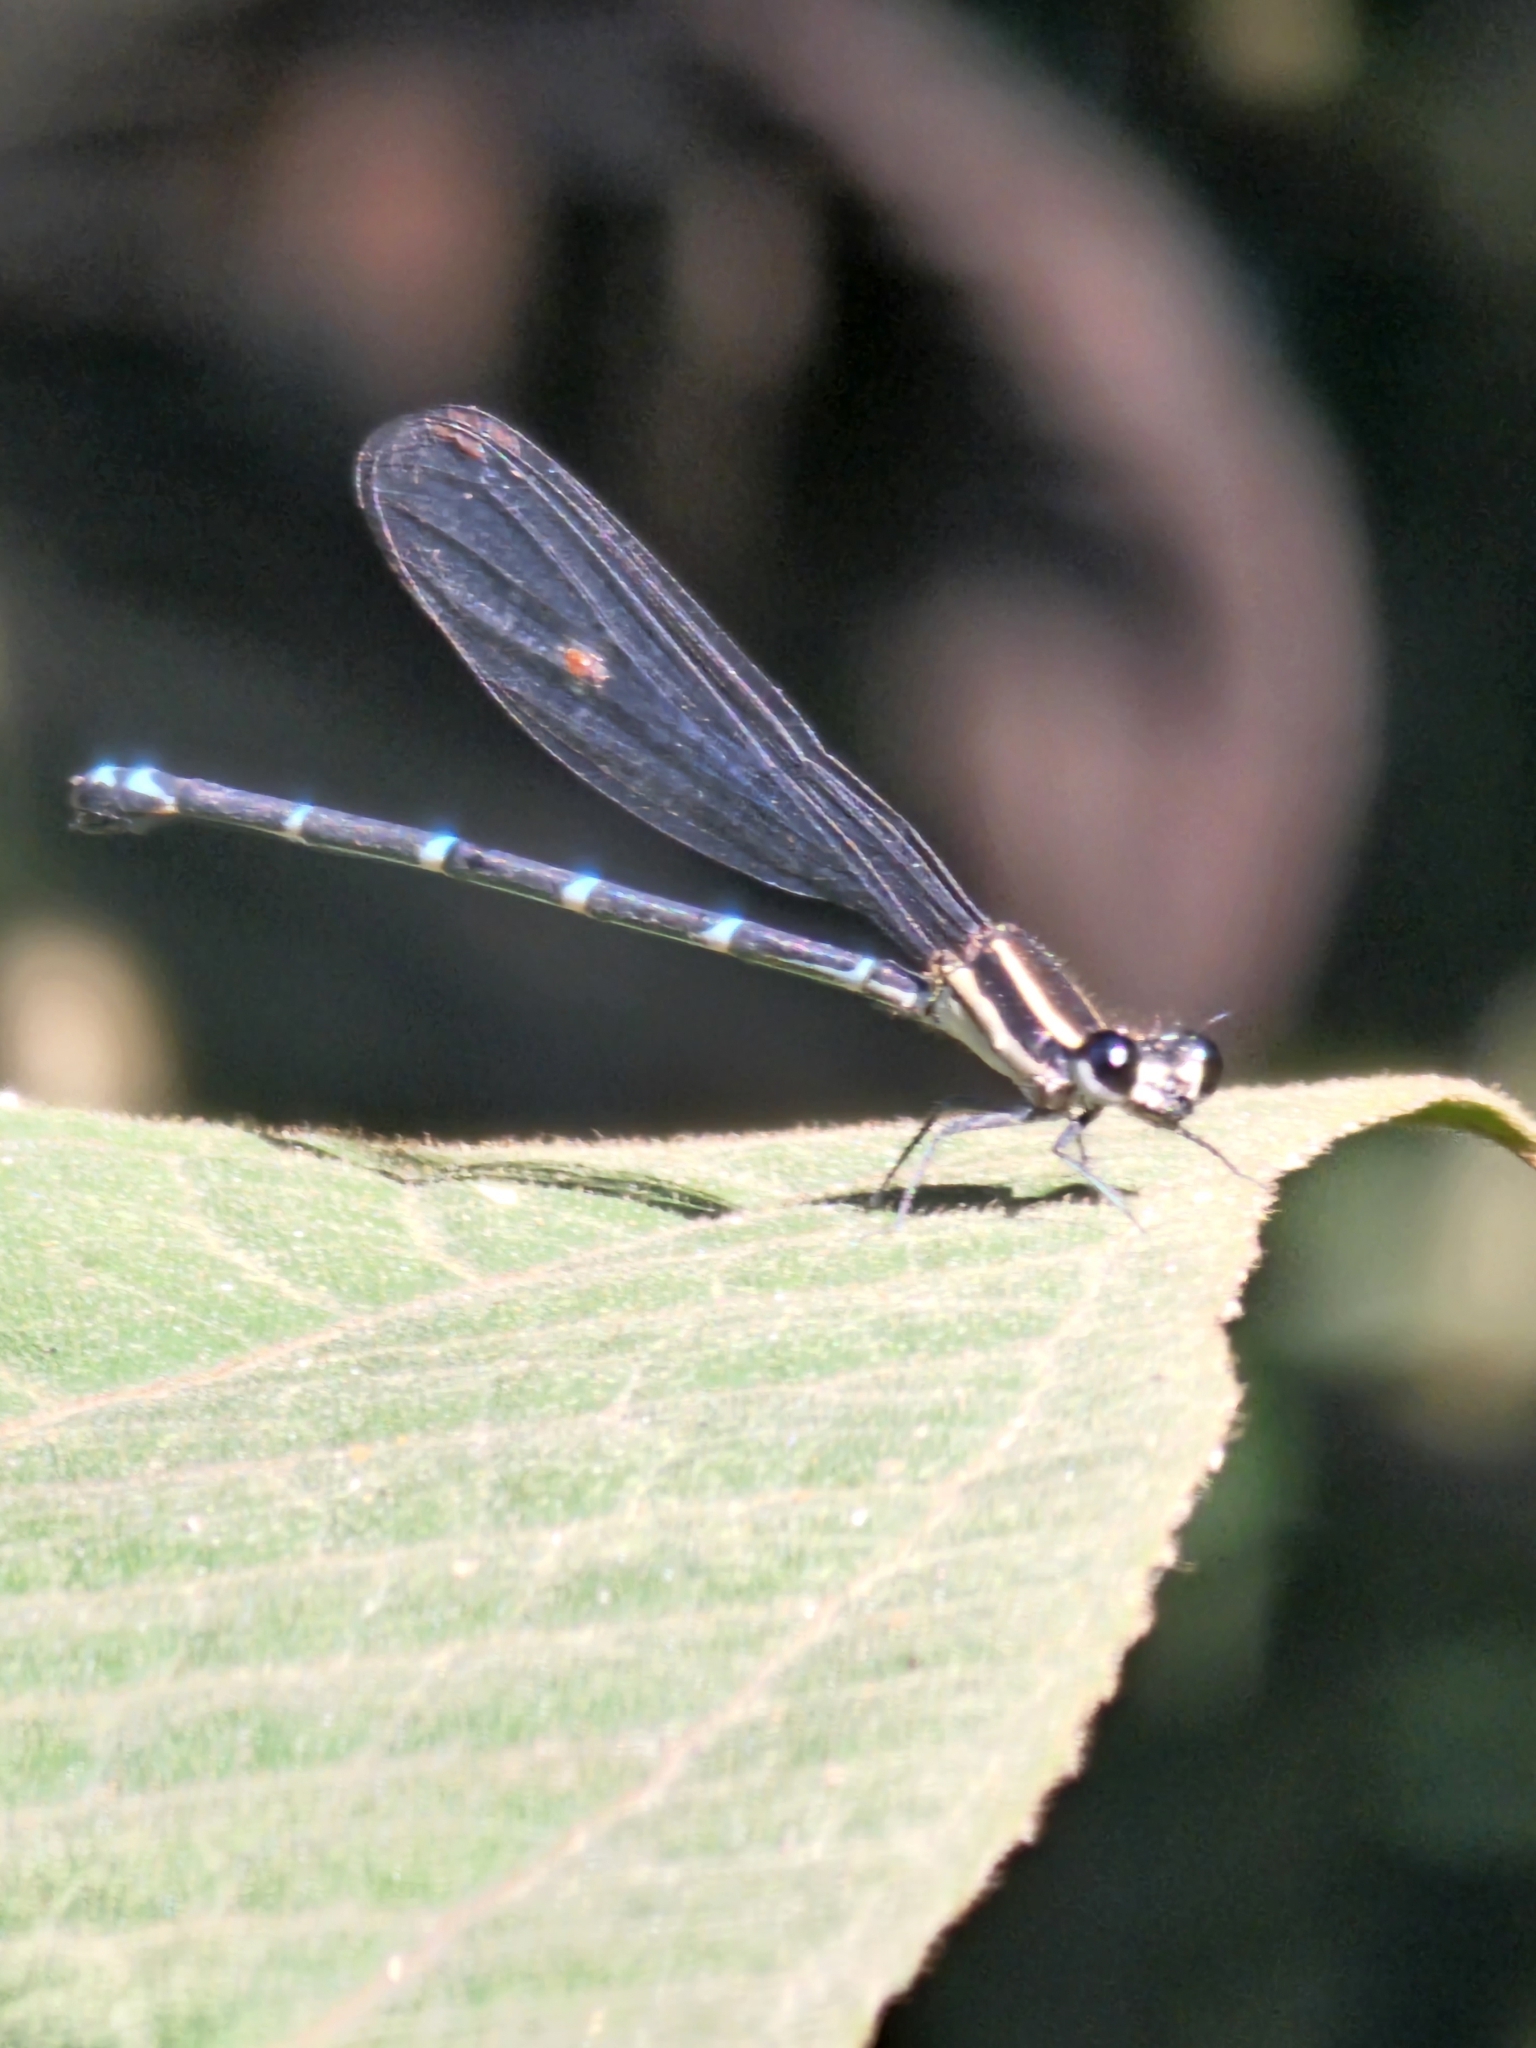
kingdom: Animalia
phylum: Arthropoda
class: Insecta
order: Odonata
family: Coenagrionidae
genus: Argia
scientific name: Argia oculata
